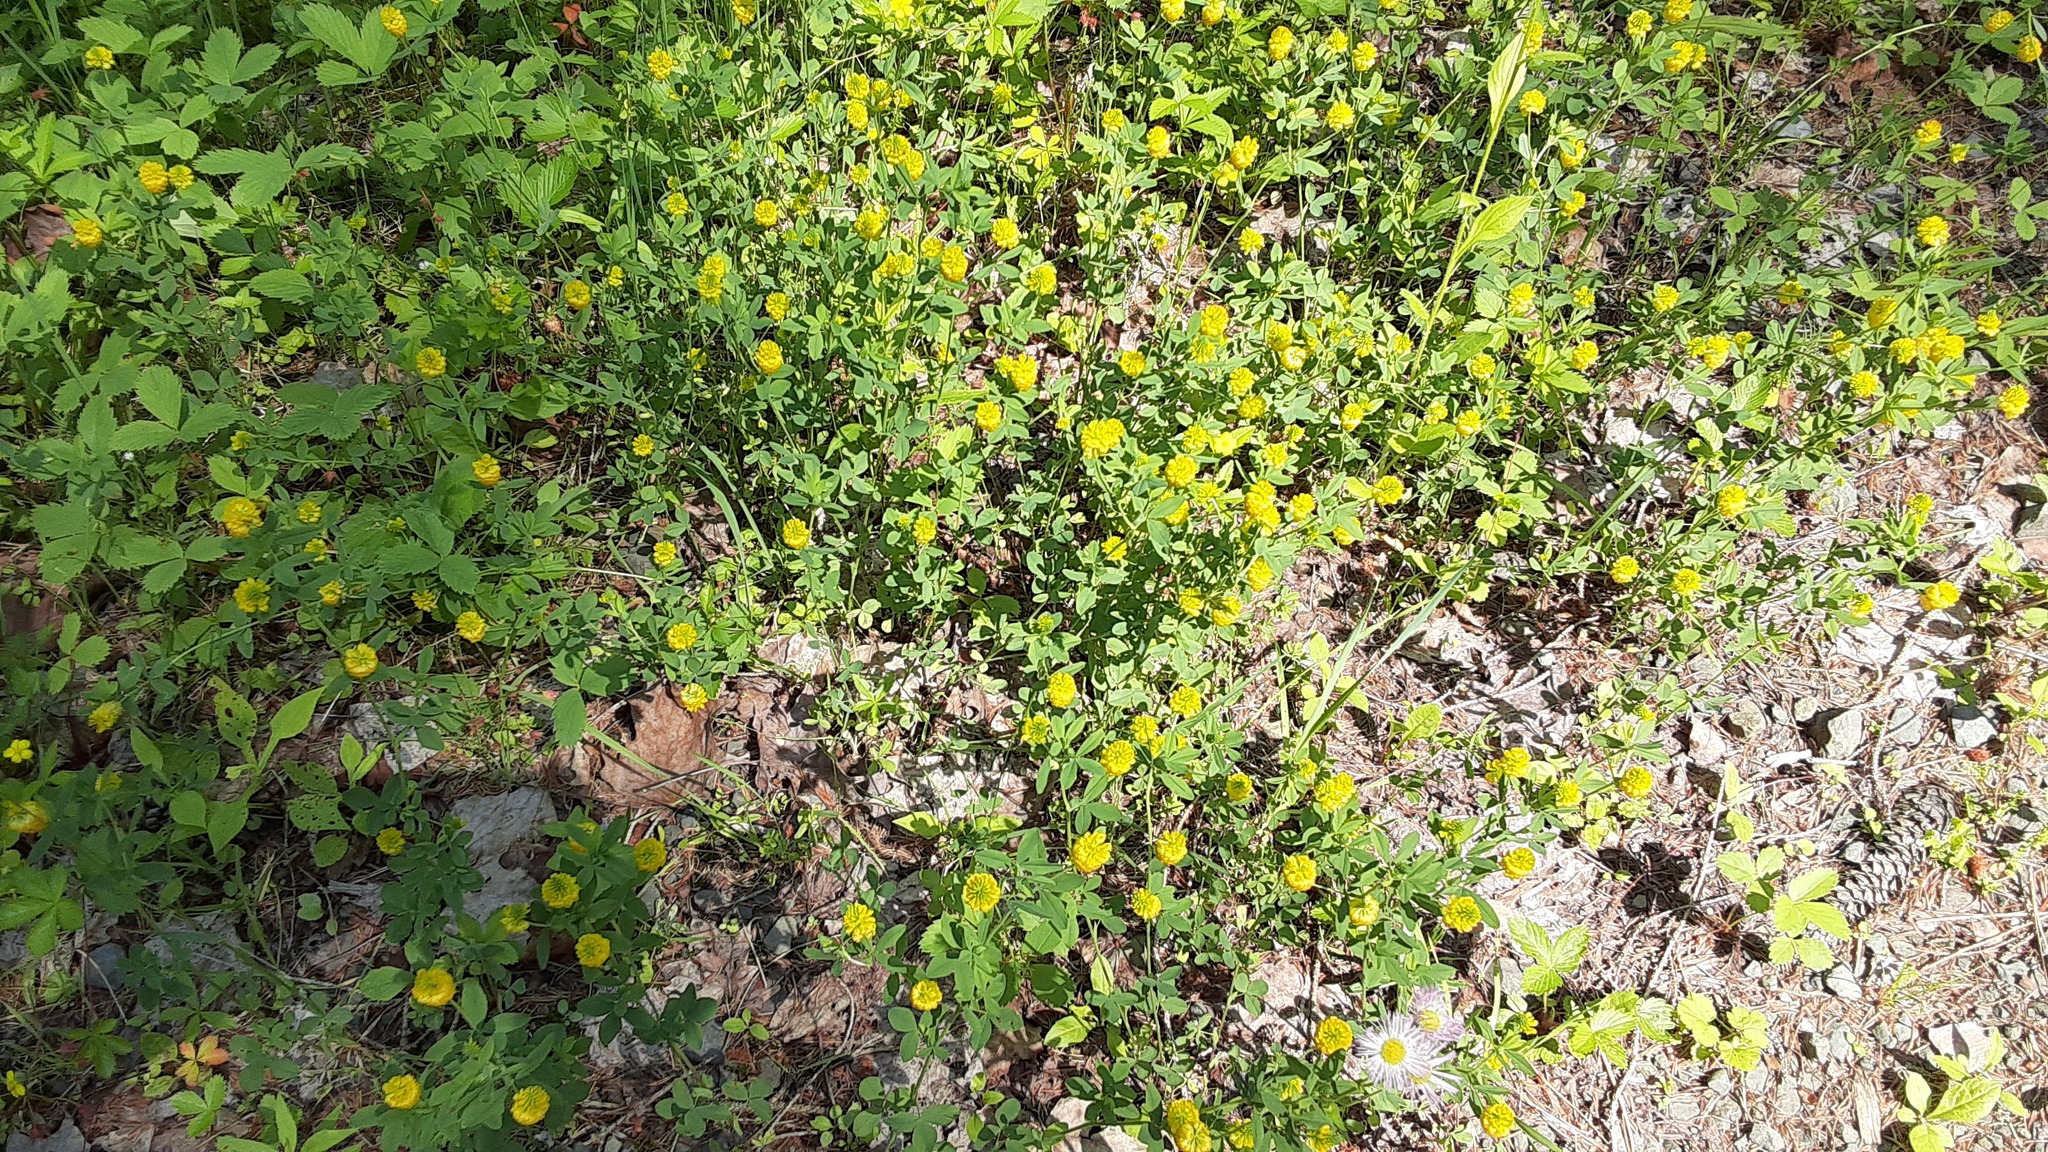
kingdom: Plantae
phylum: Tracheophyta
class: Magnoliopsida
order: Fabales
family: Fabaceae
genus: Trifolium
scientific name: Trifolium aureum
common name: Golden clover
